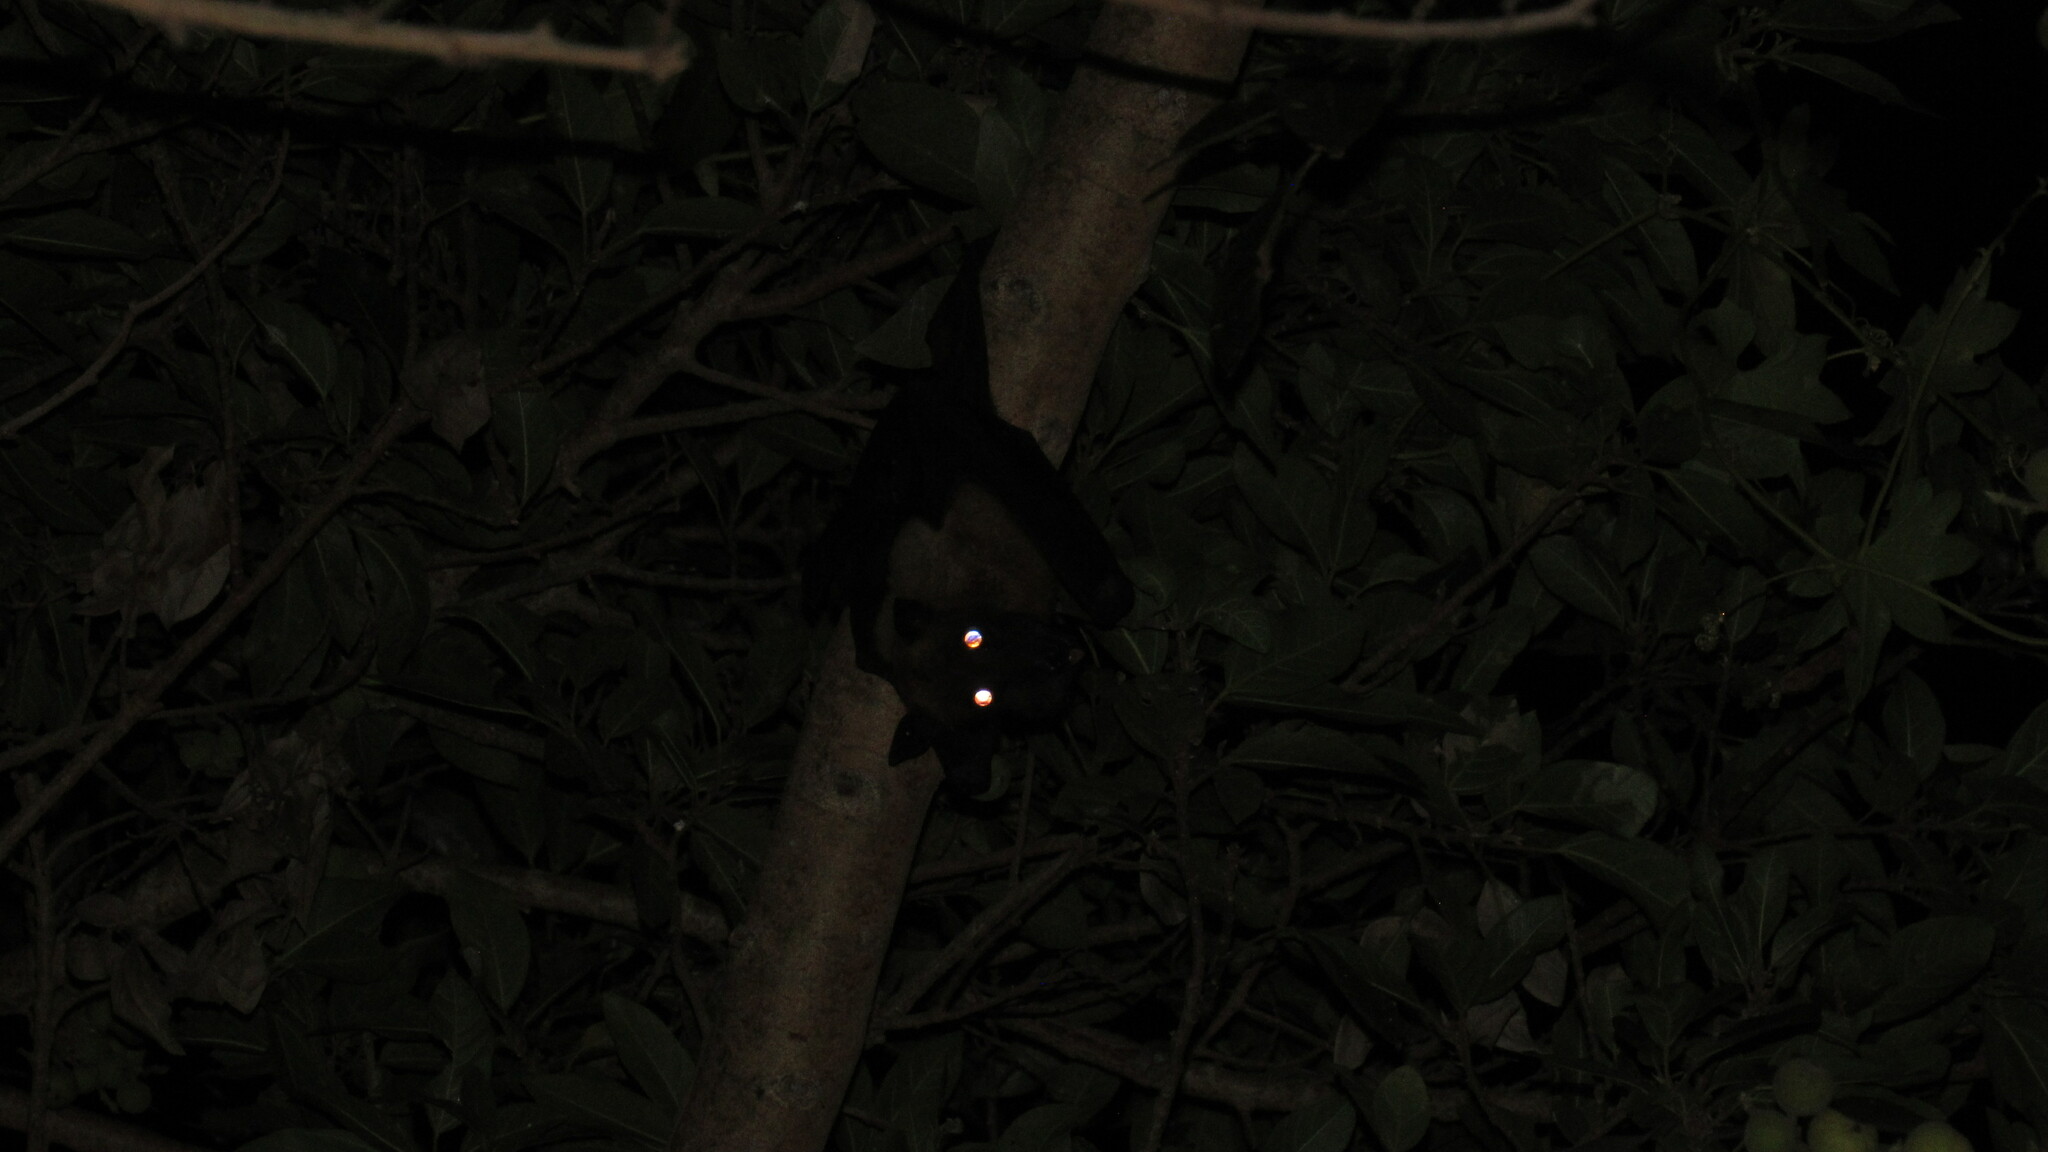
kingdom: Animalia
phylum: Chordata
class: Mammalia
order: Chiroptera
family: Pteropodidae
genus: Pteropus
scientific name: Pteropus vampyrus
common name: Large flying fox
